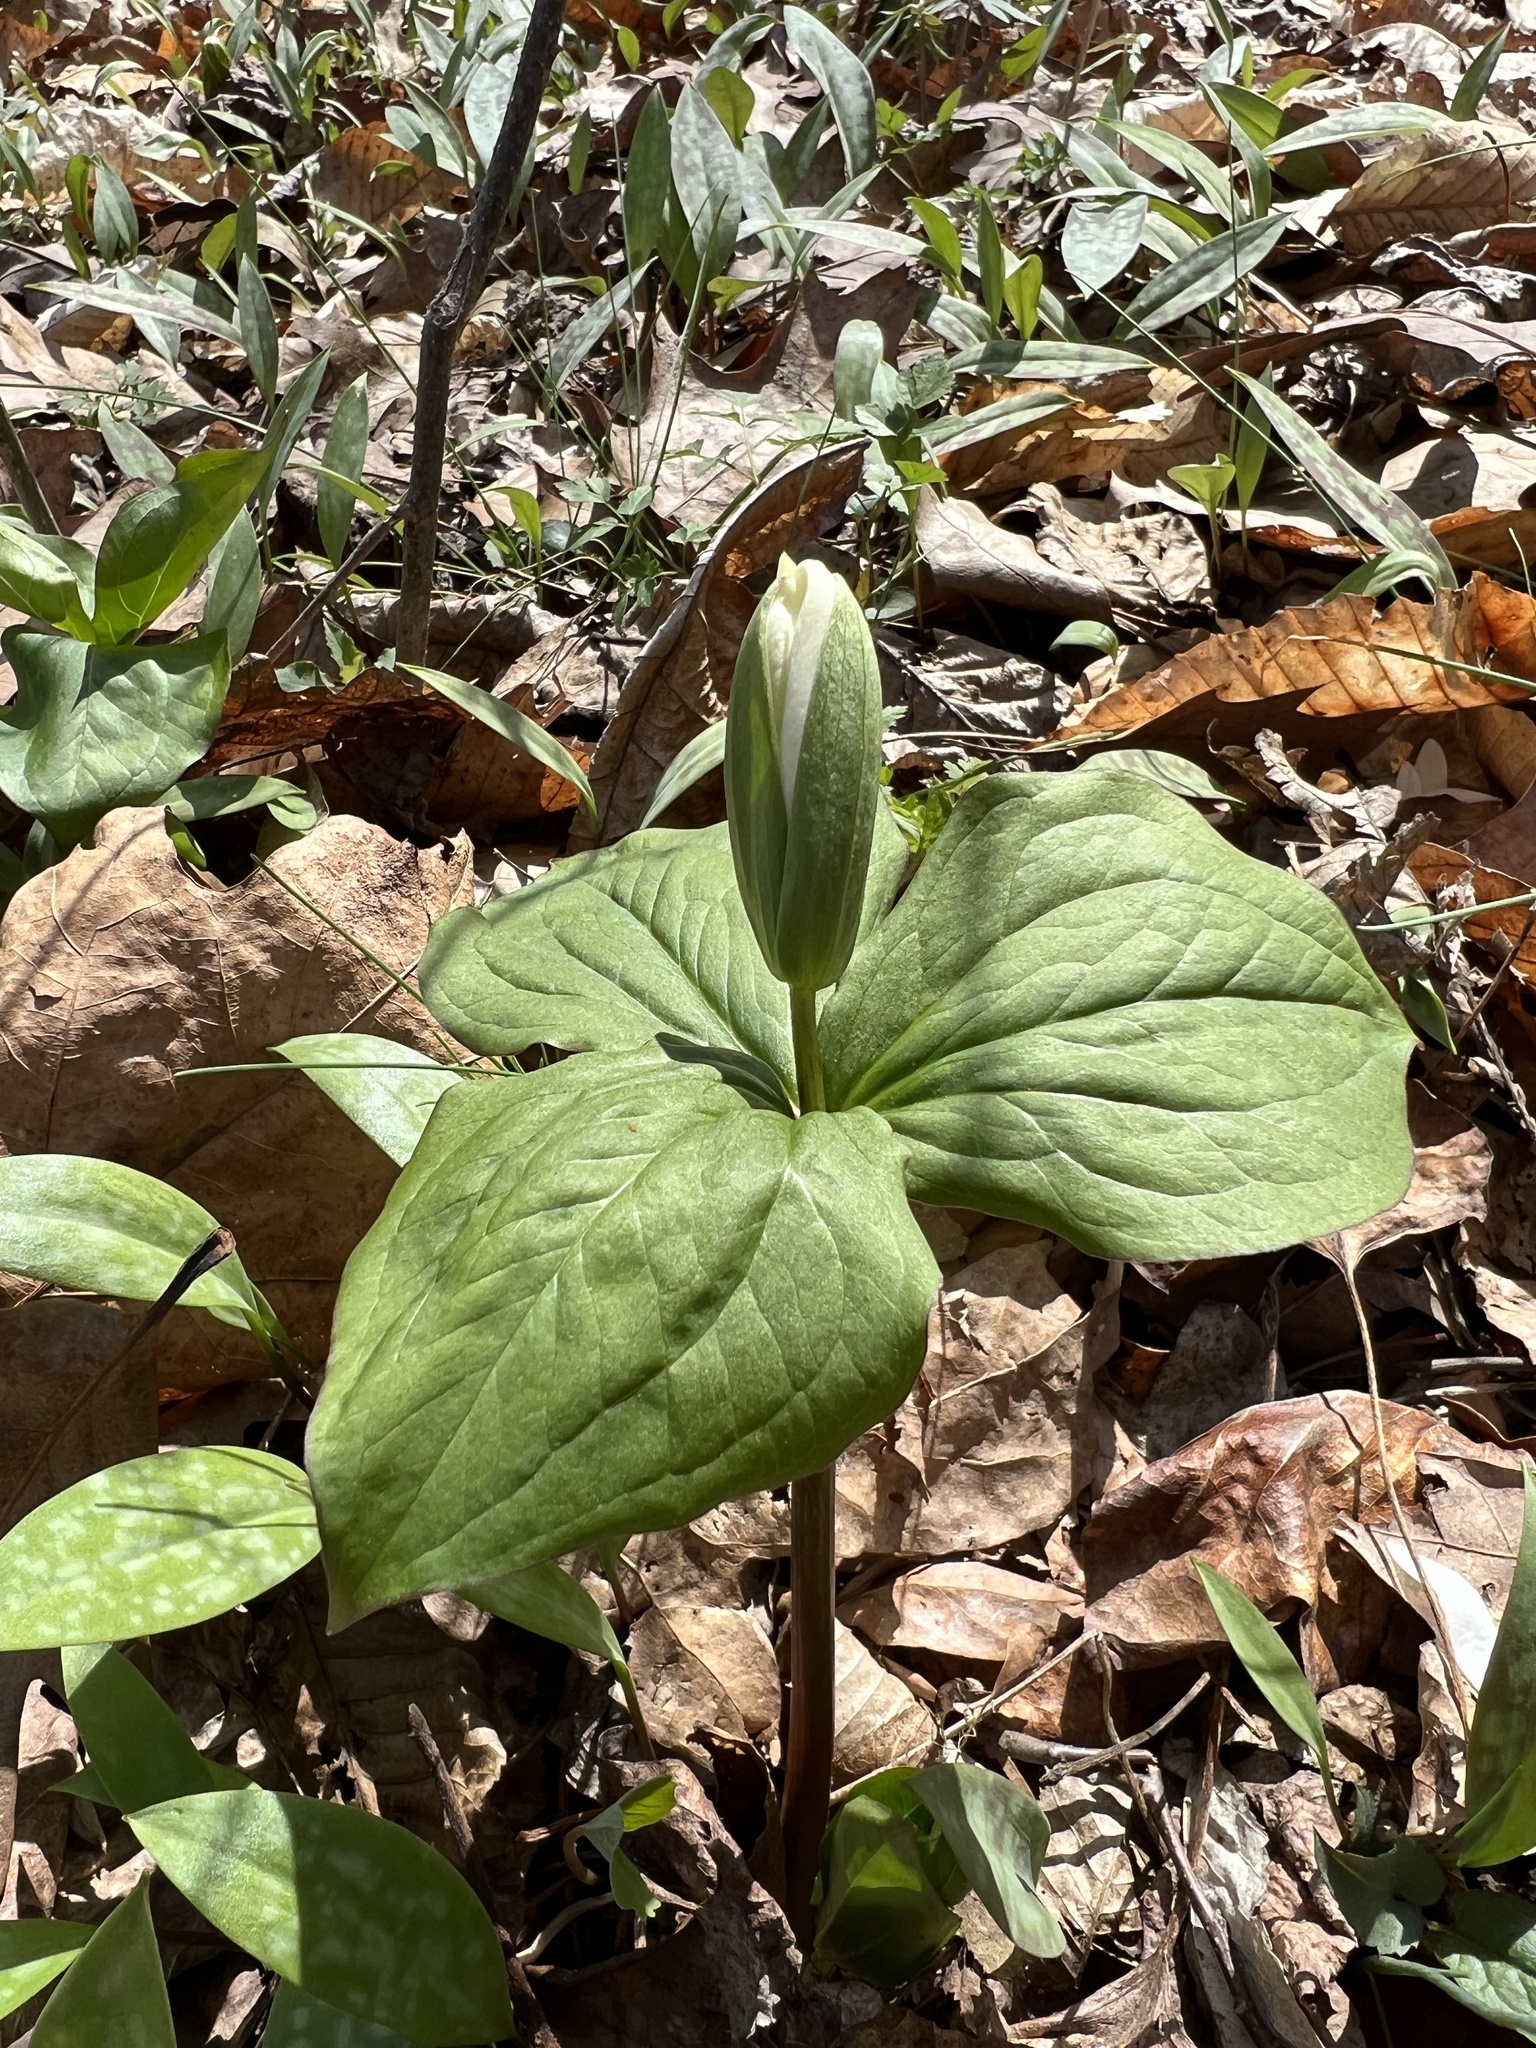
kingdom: Plantae
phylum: Tracheophyta
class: Liliopsida
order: Liliales
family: Melanthiaceae
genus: Trillium
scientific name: Trillium grandiflorum
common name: Great white trillium
